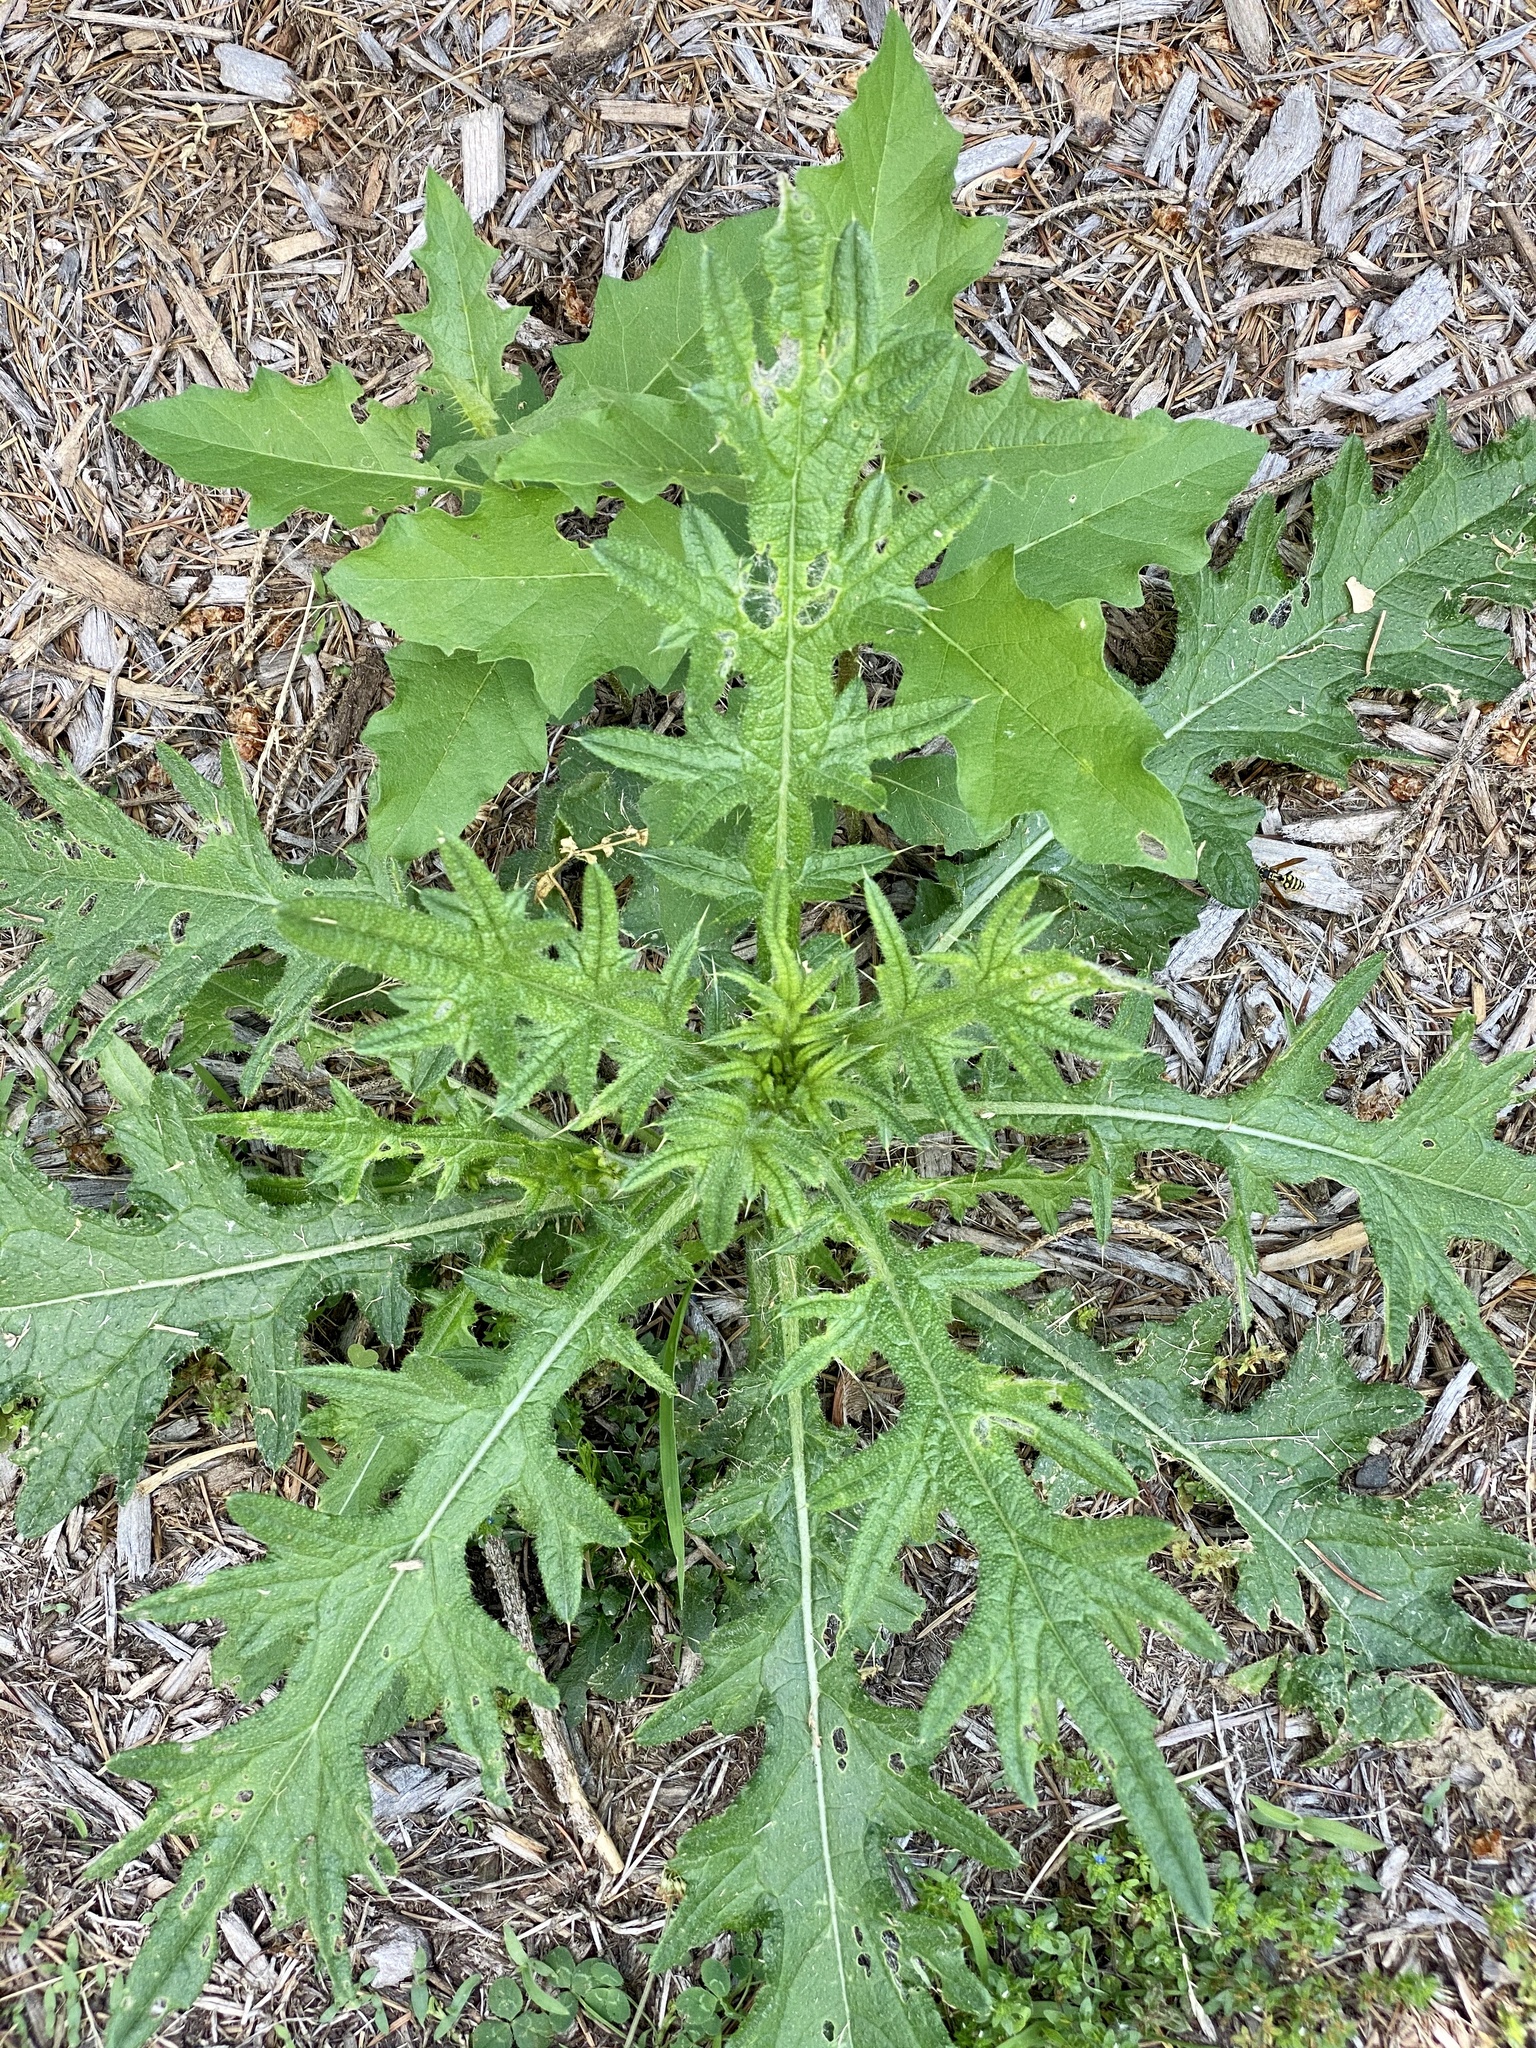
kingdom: Plantae
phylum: Tracheophyta
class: Magnoliopsida
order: Asterales
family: Asteraceae
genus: Cirsium
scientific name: Cirsium vulgare
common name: Bull thistle
